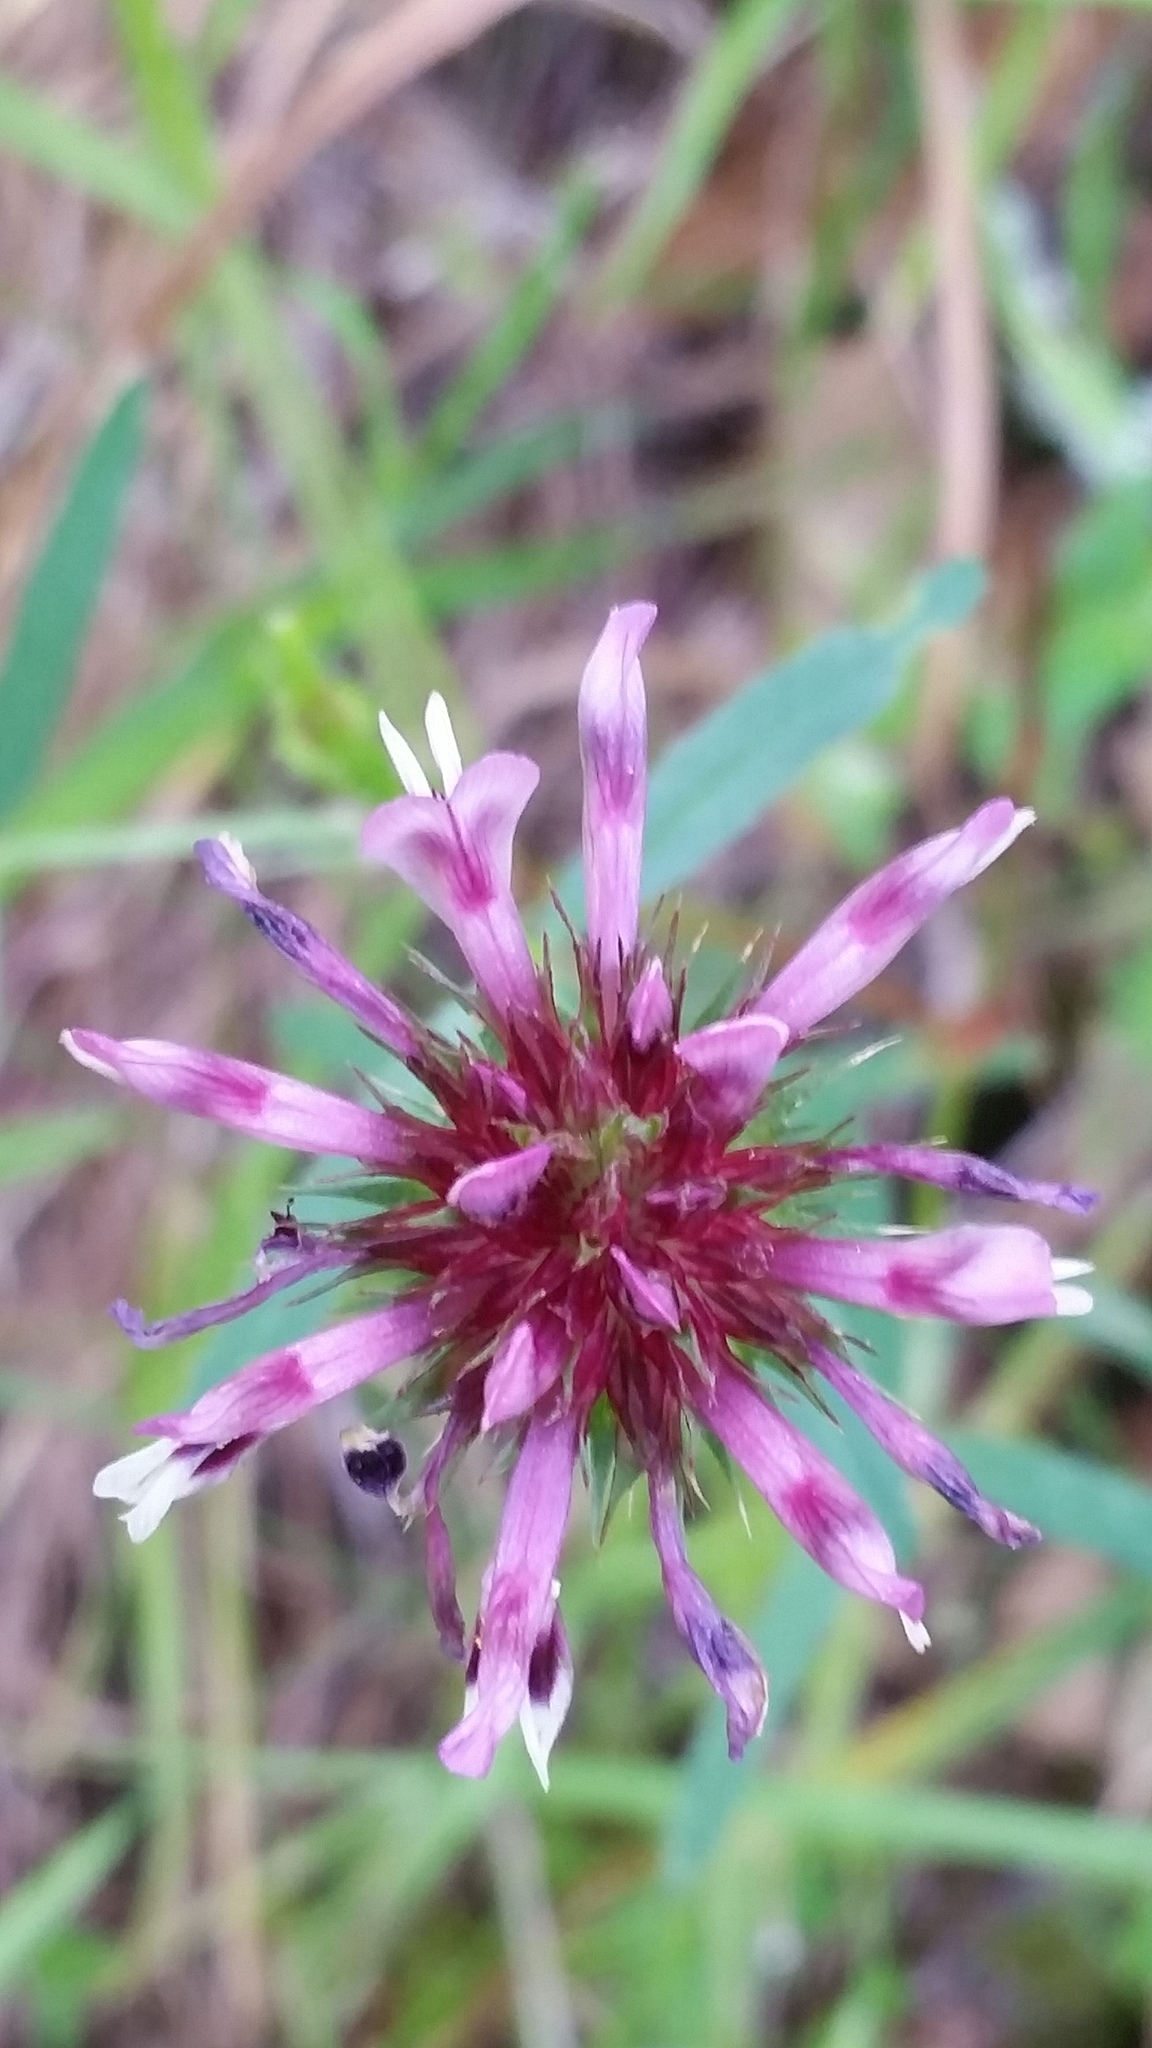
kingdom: Plantae
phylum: Tracheophyta
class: Magnoliopsida
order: Fabales
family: Fabaceae
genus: Trifolium
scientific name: Trifolium willdenovii
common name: Tomcat clover
